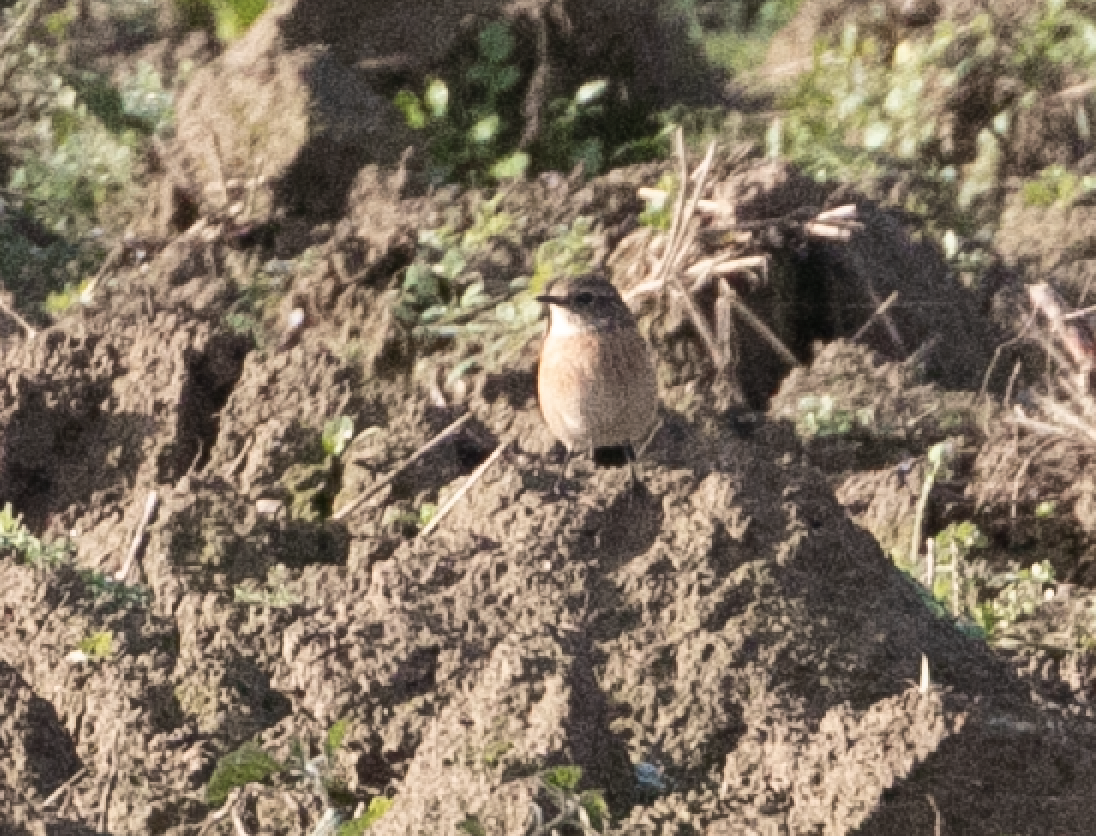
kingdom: Animalia
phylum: Chordata
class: Aves
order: Passeriformes
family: Muscicapidae
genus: Saxicola
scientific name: Saxicola rubicola
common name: European stonechat
